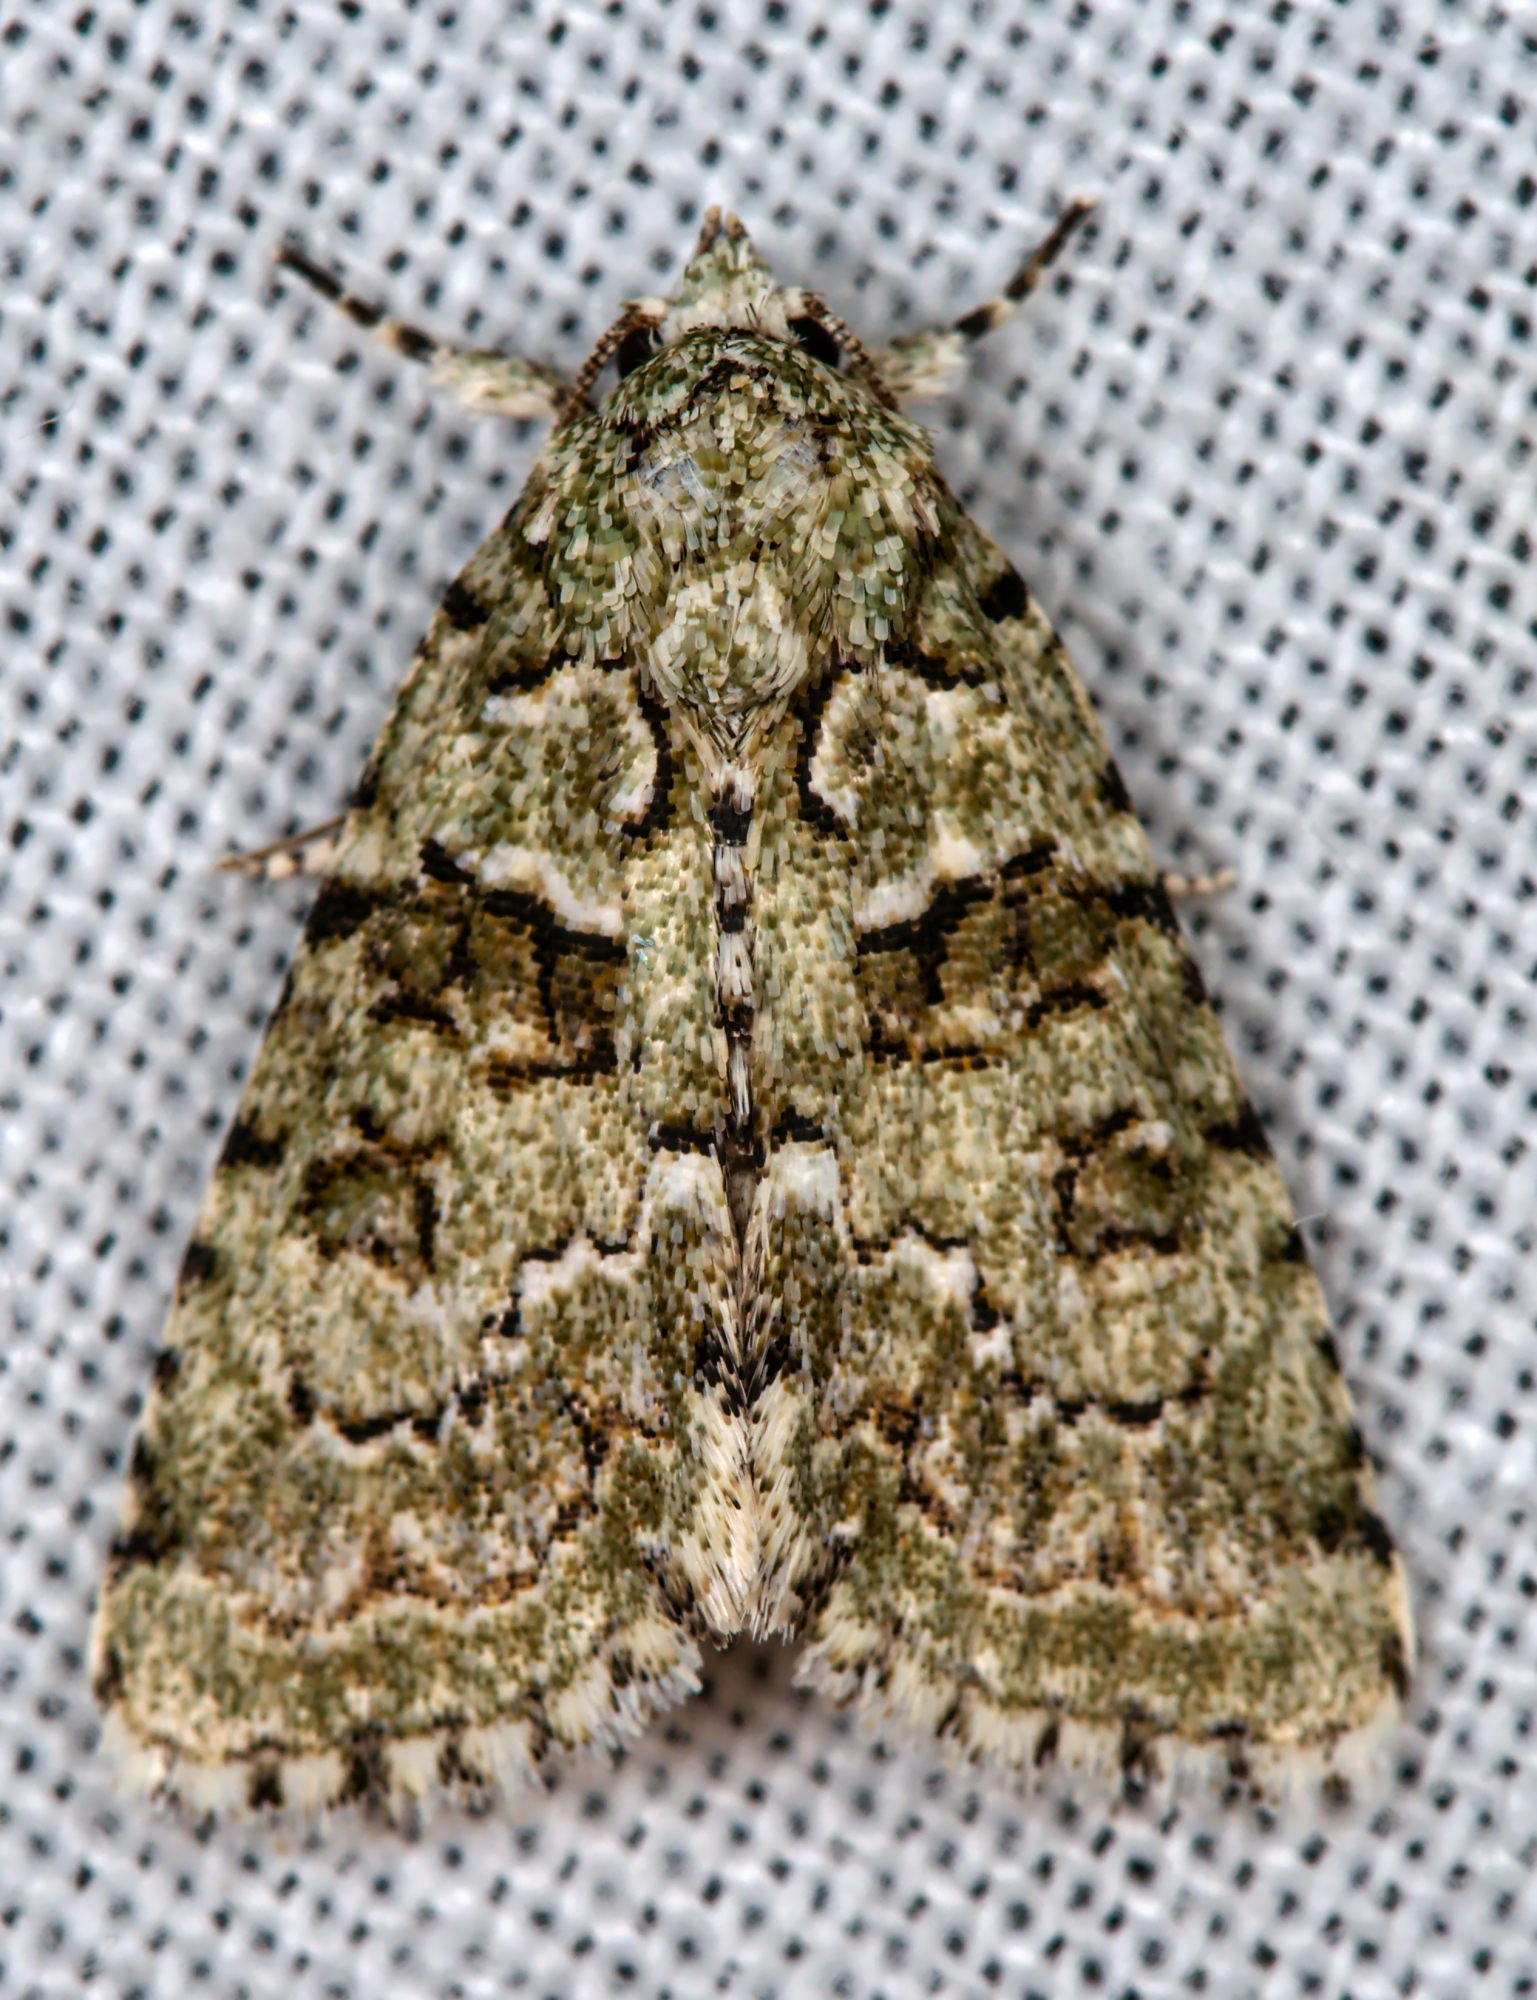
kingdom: Animalia
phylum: Arthropoda
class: Insecta
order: Lepidoptera
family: Noctuidae
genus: Nyctobrya
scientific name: Nyctobrya muralis
